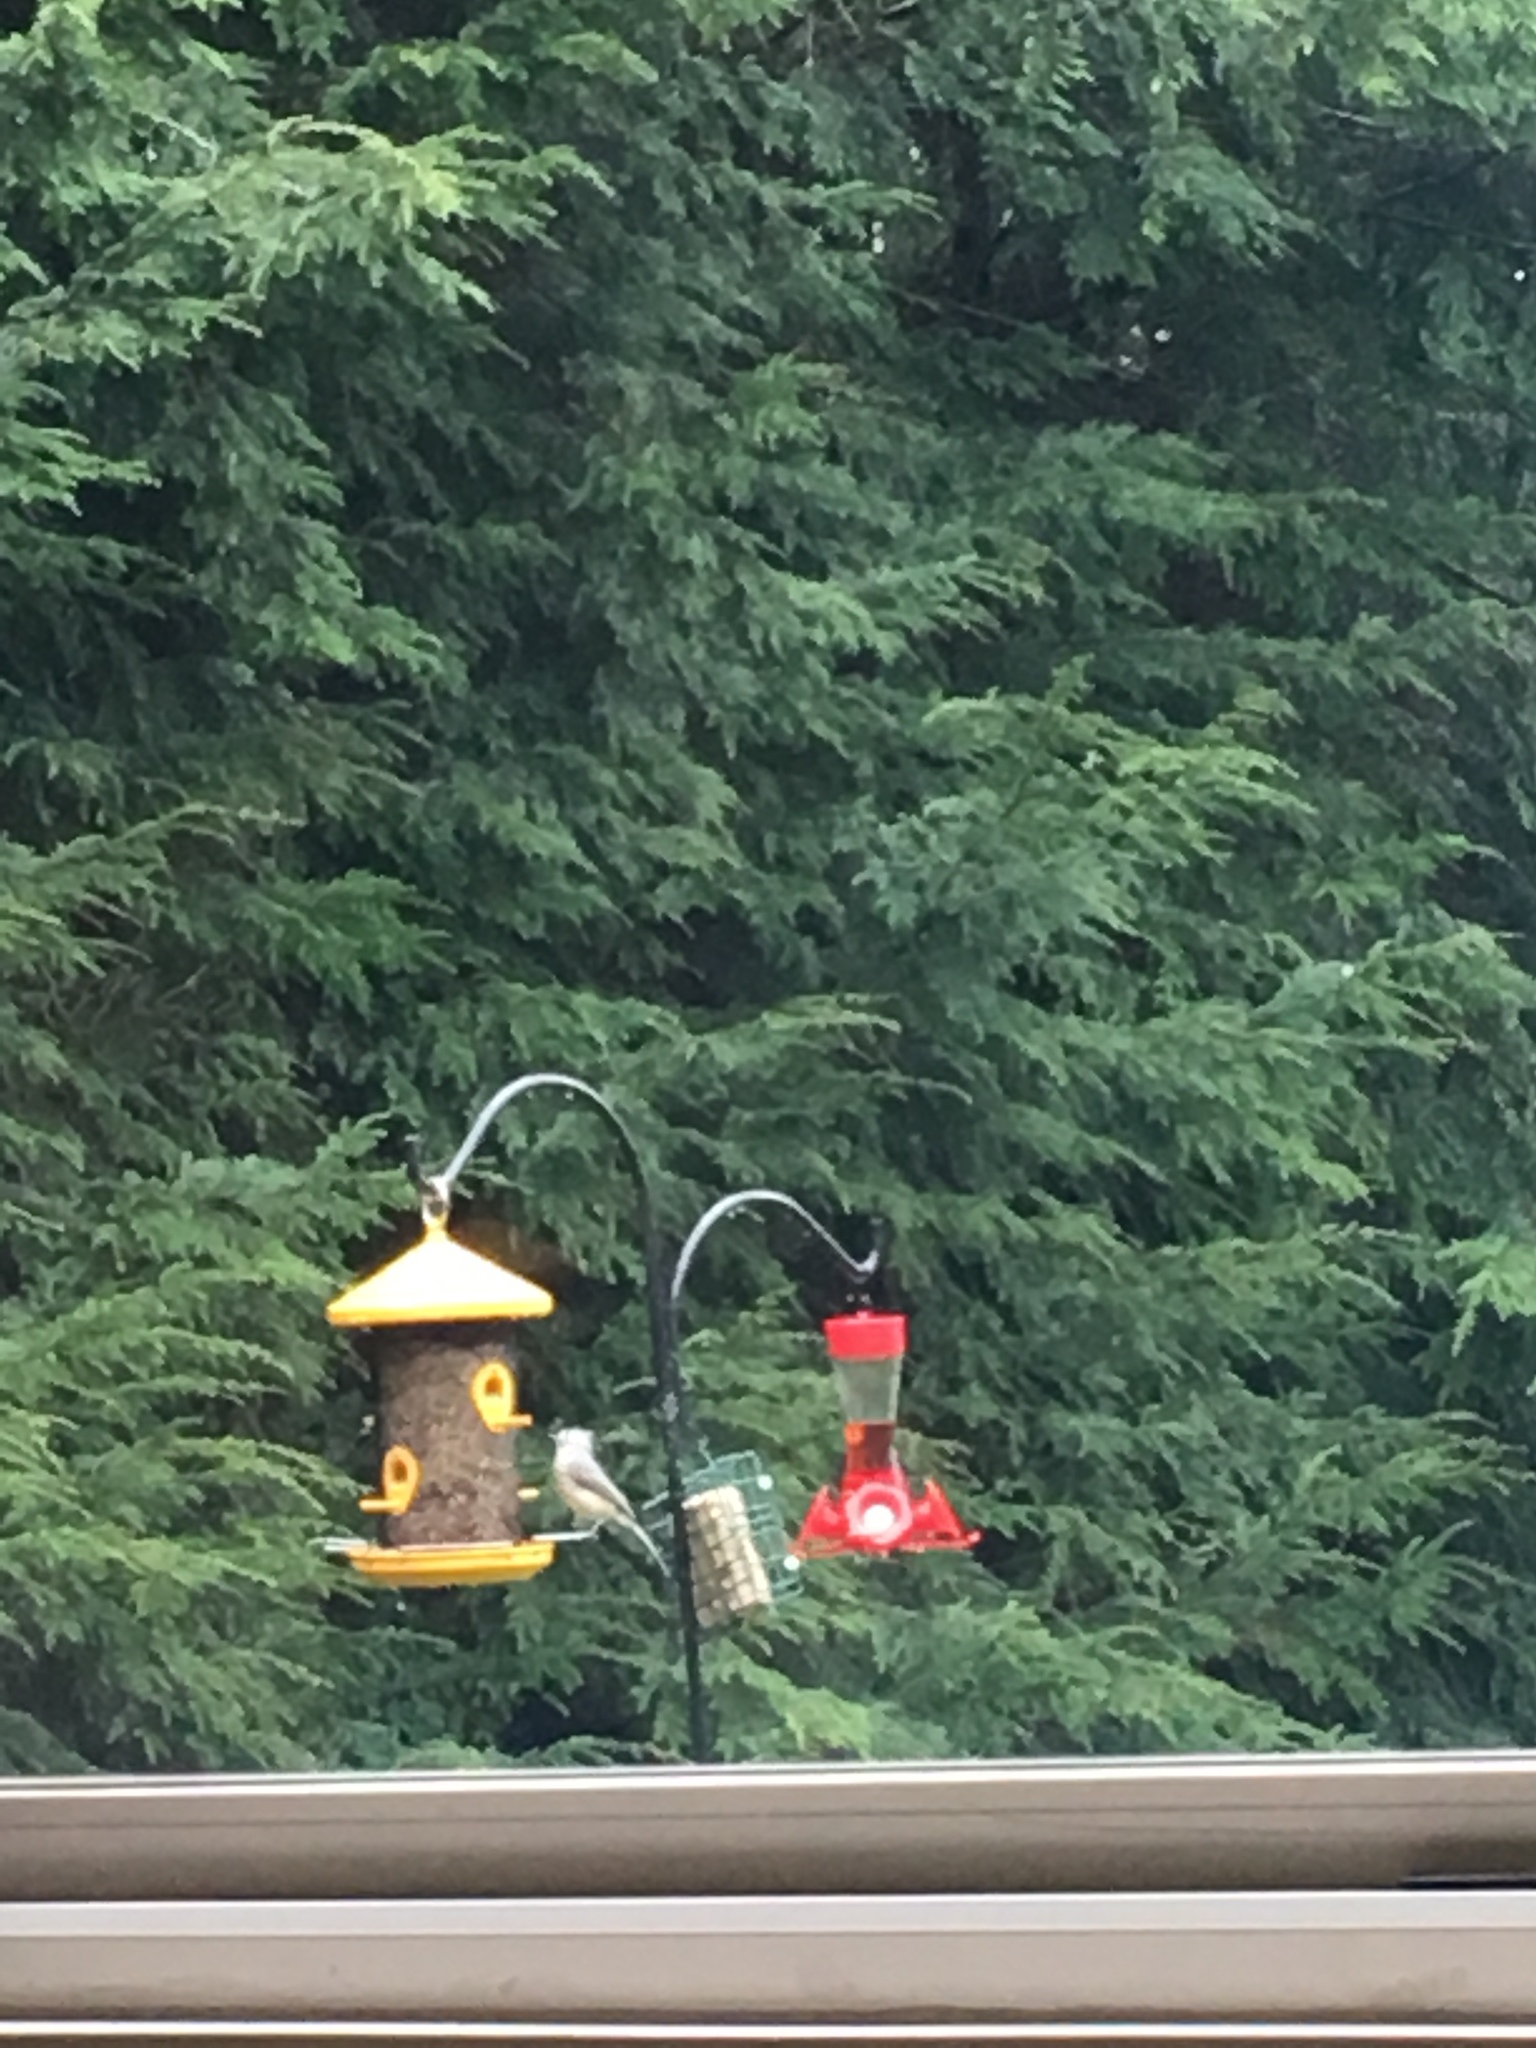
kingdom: Animalia
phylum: Chordata
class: Aves
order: Passeriformes
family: Paridae
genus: Baeolophus
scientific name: Baeolophus bicolor
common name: Tufted titmouse
